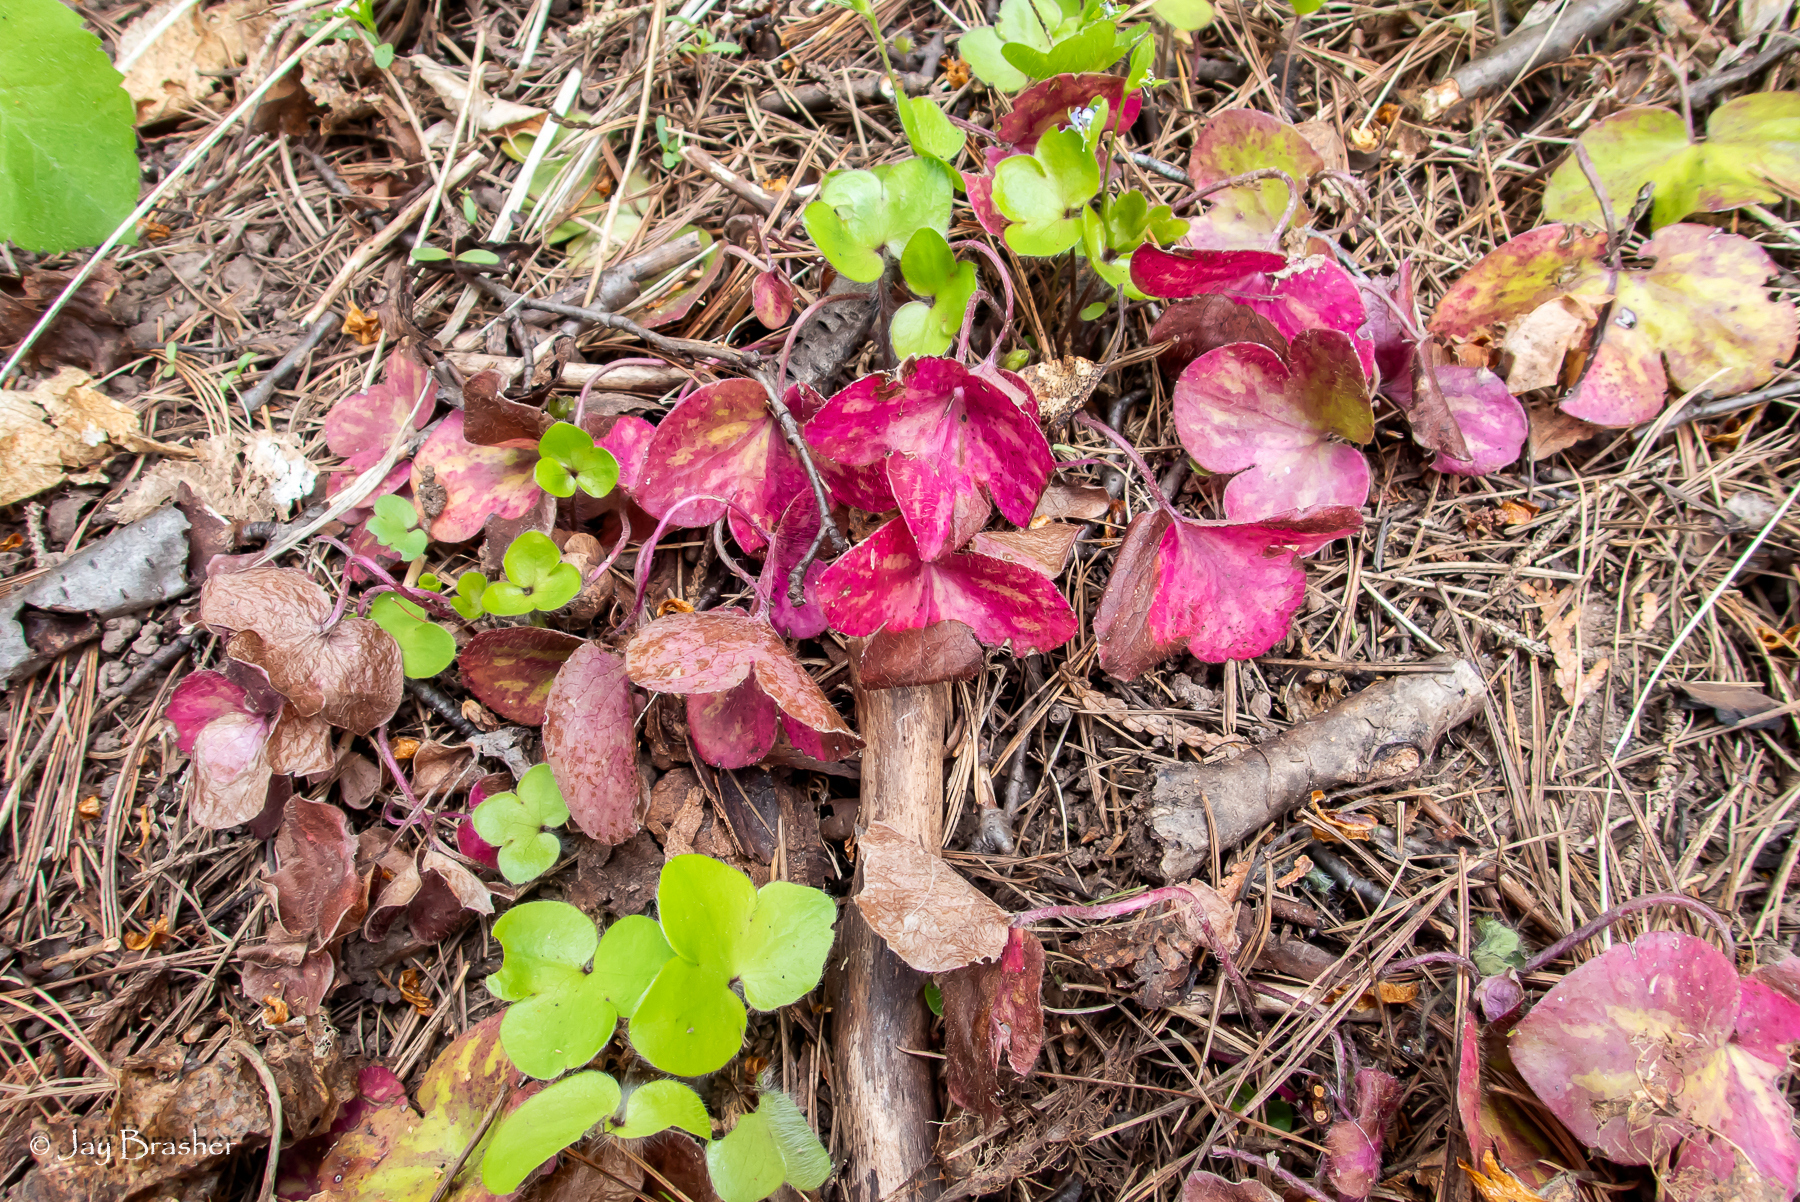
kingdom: Plantae
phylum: Tracheophyta
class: Magnoliopsida
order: Ranunculales
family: Ranunculaceae
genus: Hepatica
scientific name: Hepatica americana
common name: American hepatica
